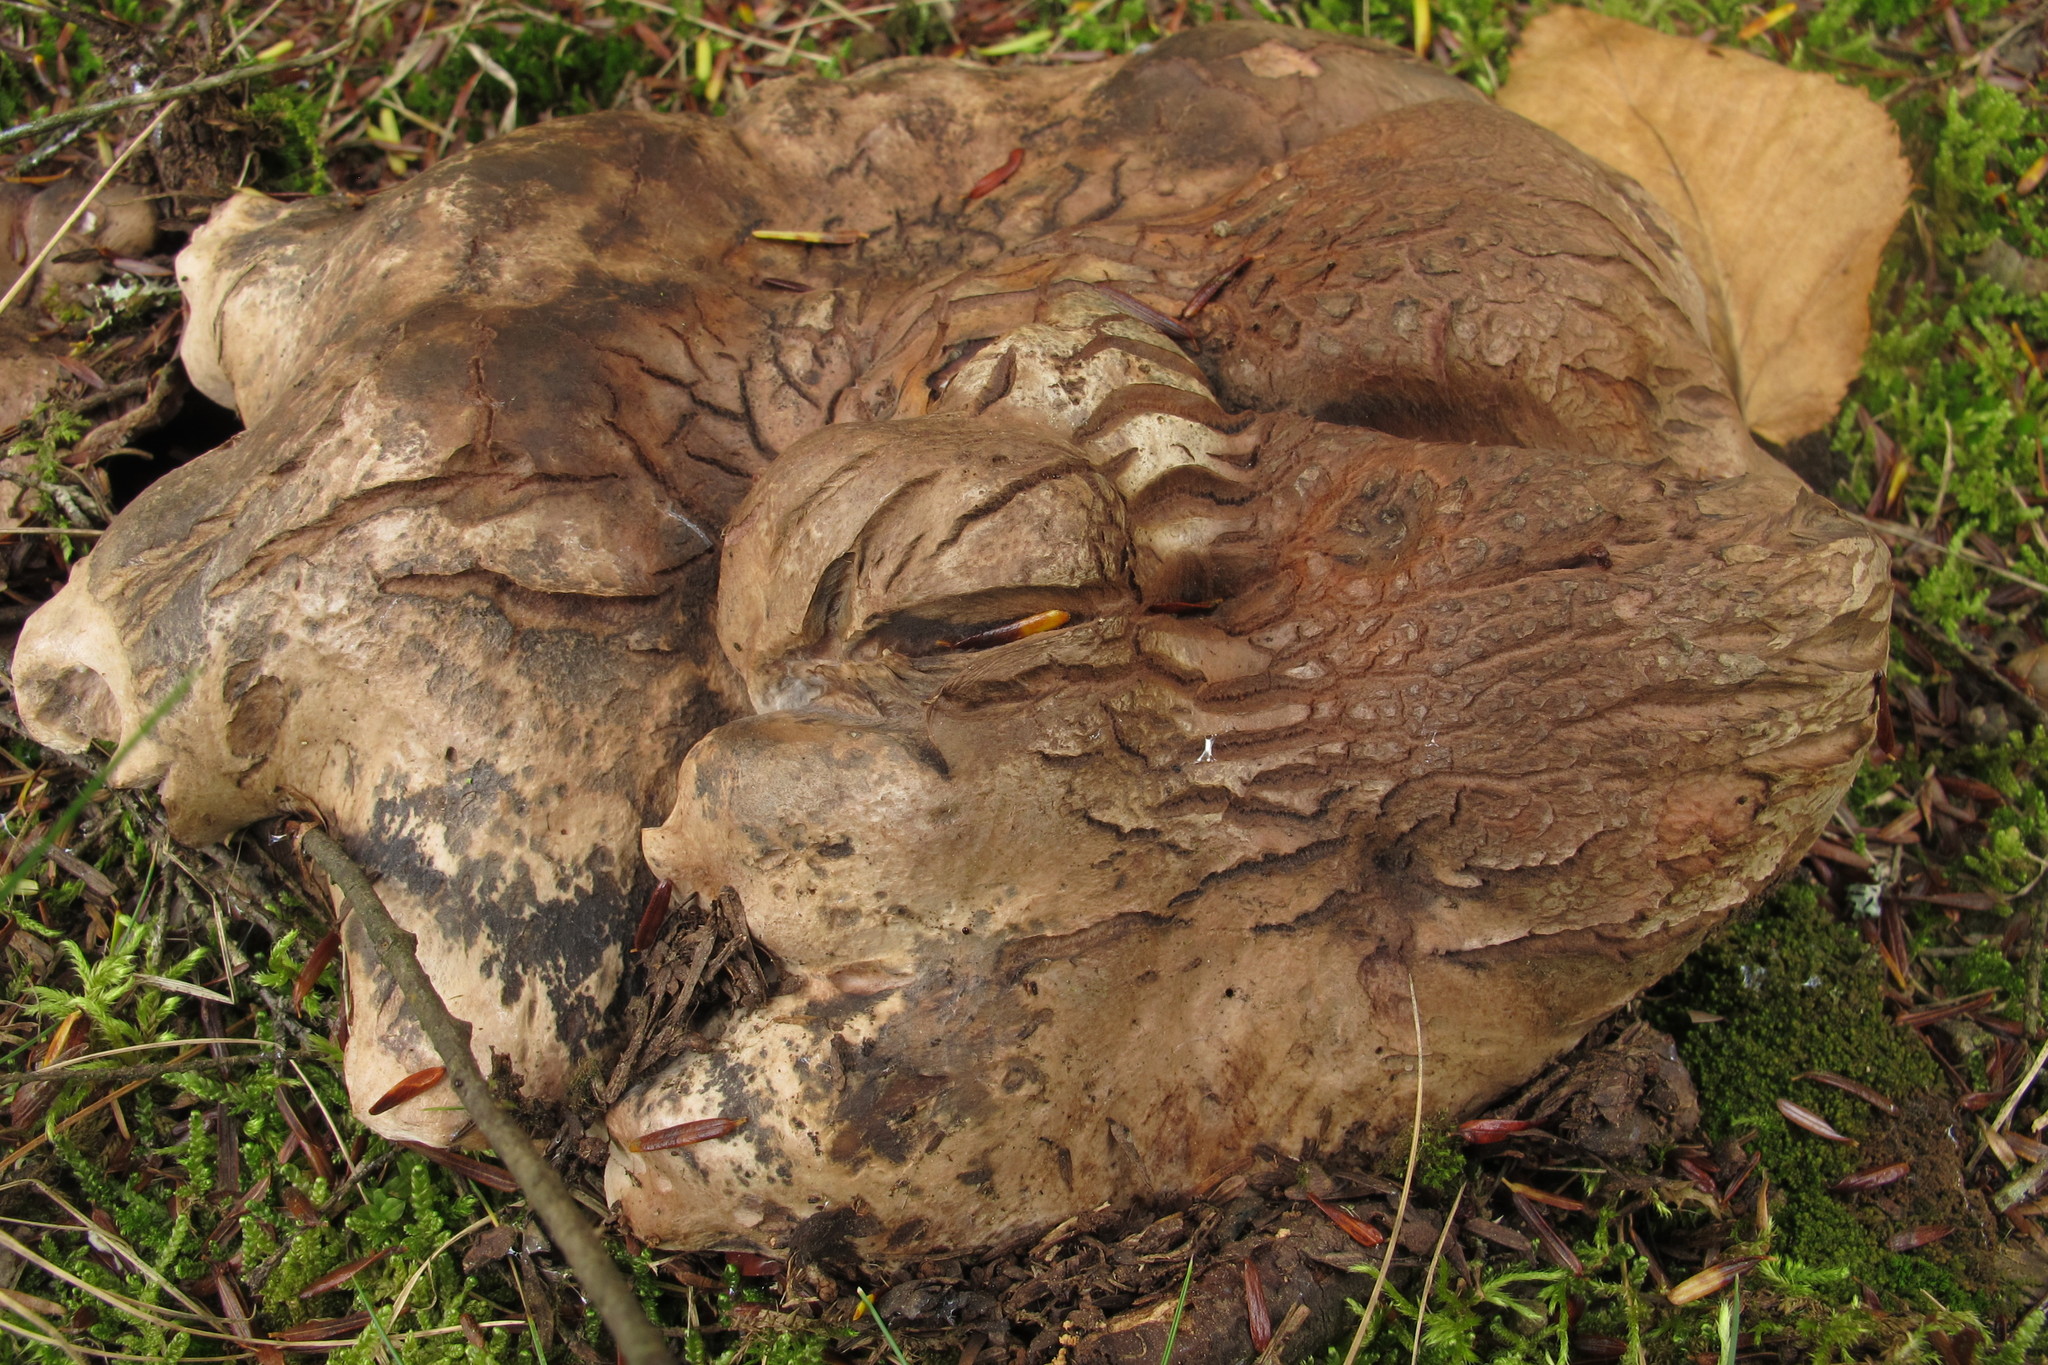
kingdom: Fungi
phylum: Basidiomycota
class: Agaricomycetes
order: Thelephorales
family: Bankeraceae
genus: Boletopsis
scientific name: Boletopsis grisea
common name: Grey falsebolete
